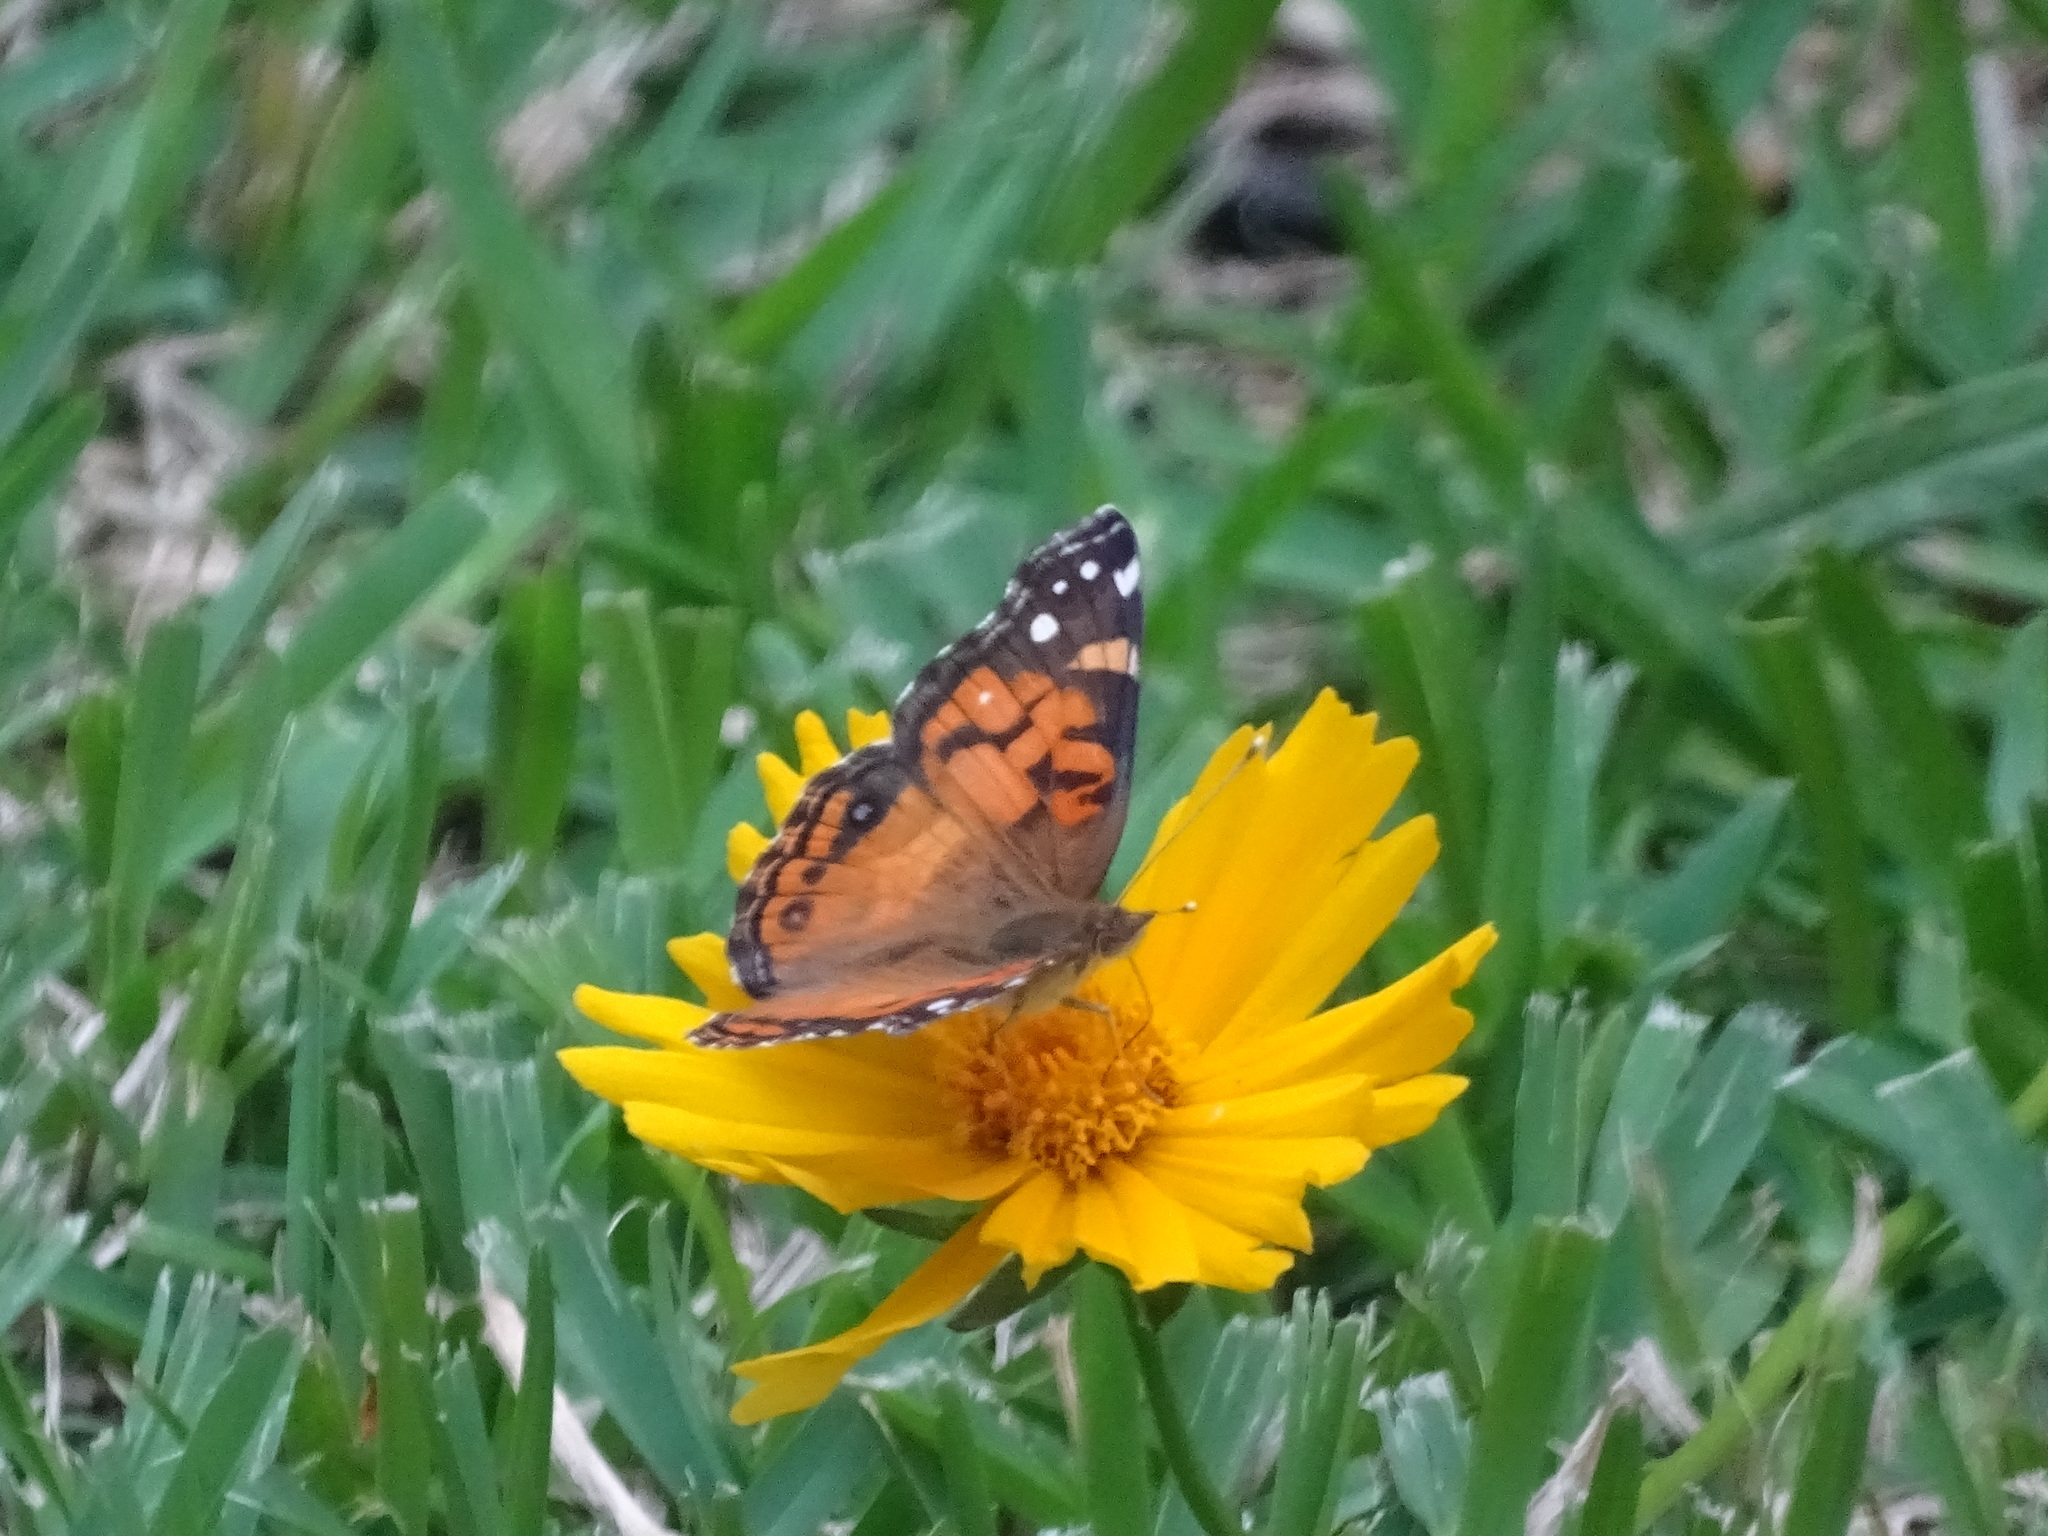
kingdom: Animalia
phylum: Arthropoda
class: Insecta
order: Lepidoptera
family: Nymphalidae
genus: Vanessa
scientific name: Vanessa virginiensis
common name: American lady
